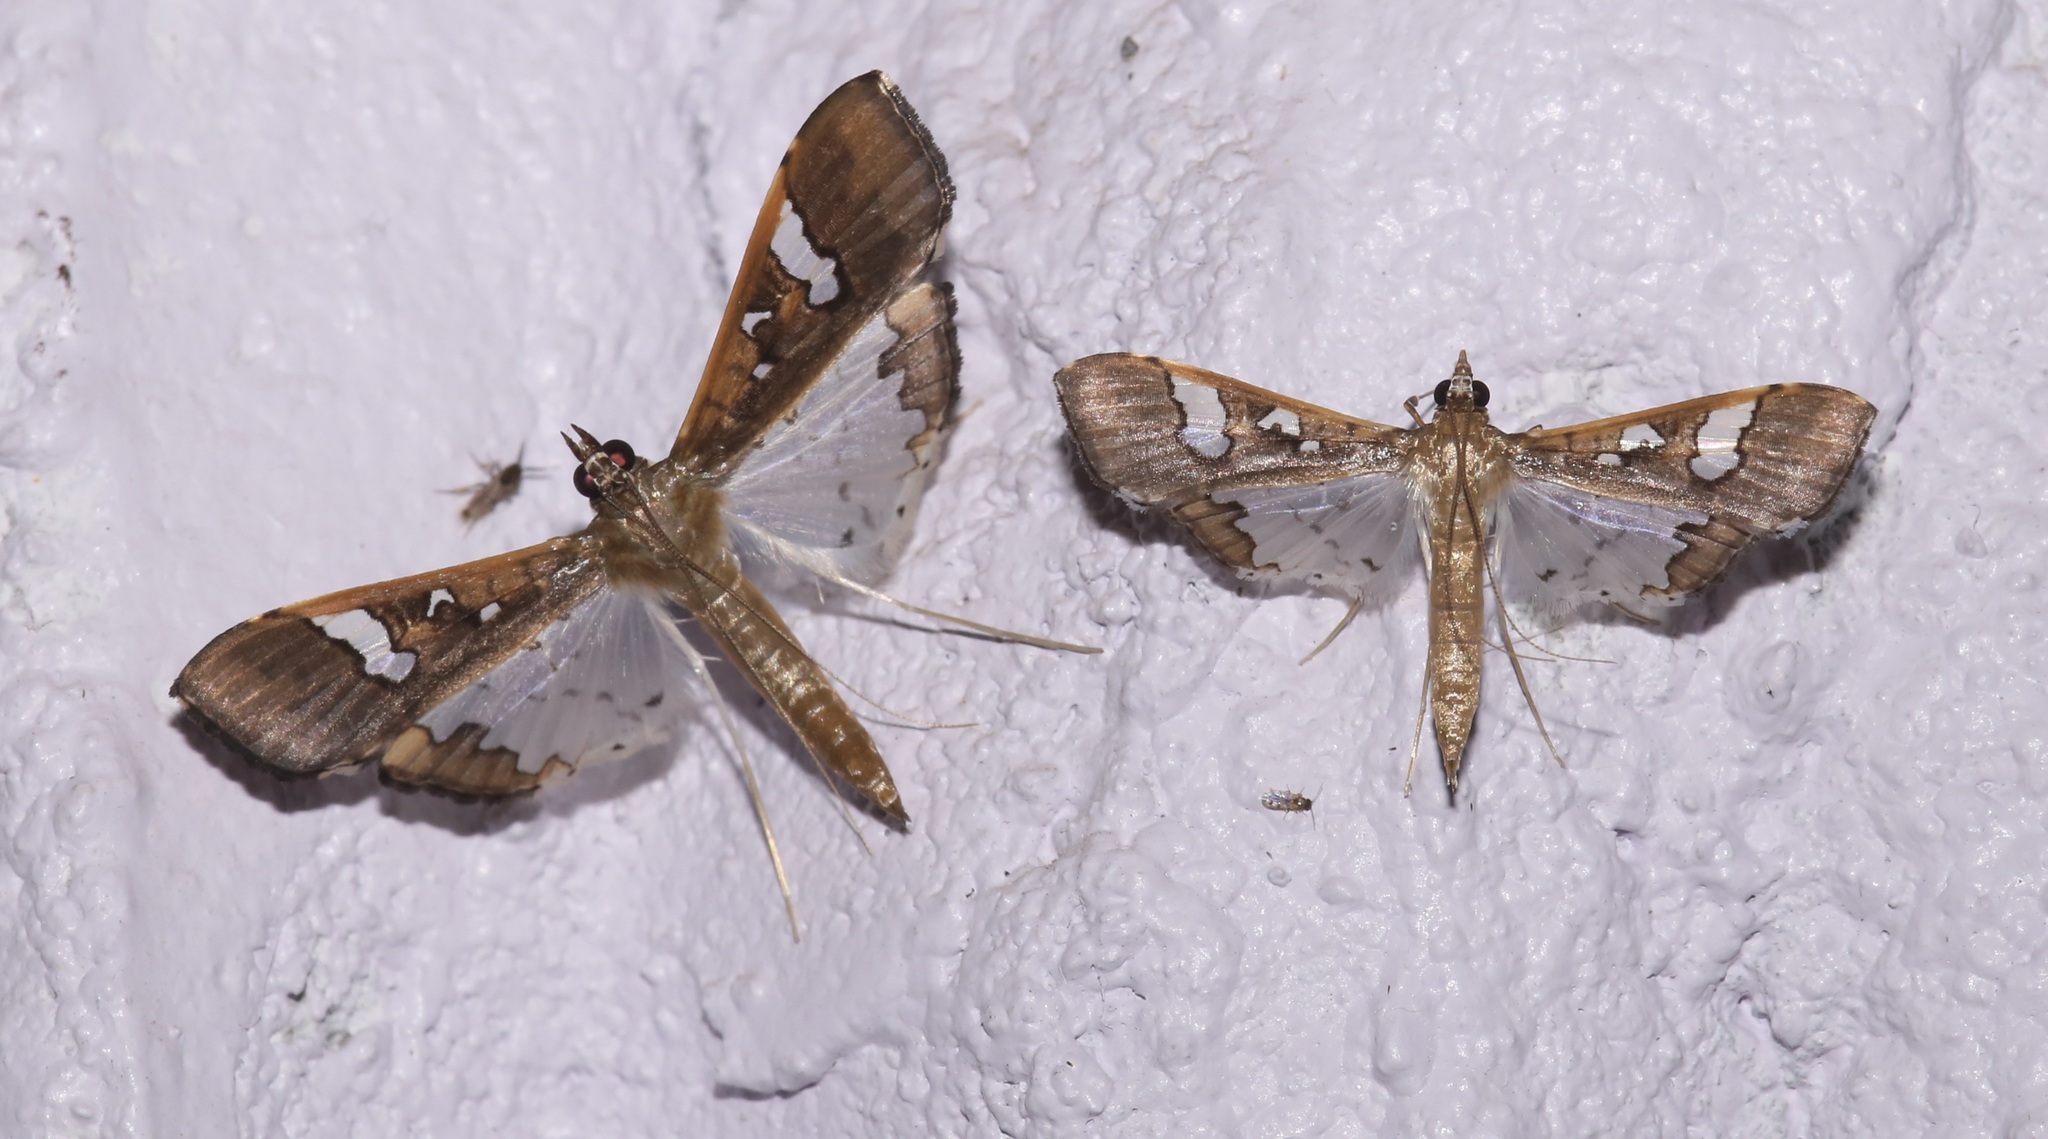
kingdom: Animalia
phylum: Arthropoda
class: Insecta
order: Lepidoptera
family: Crambidae
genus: Maruca
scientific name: Maruca vitrata
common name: Maruca pod borer
